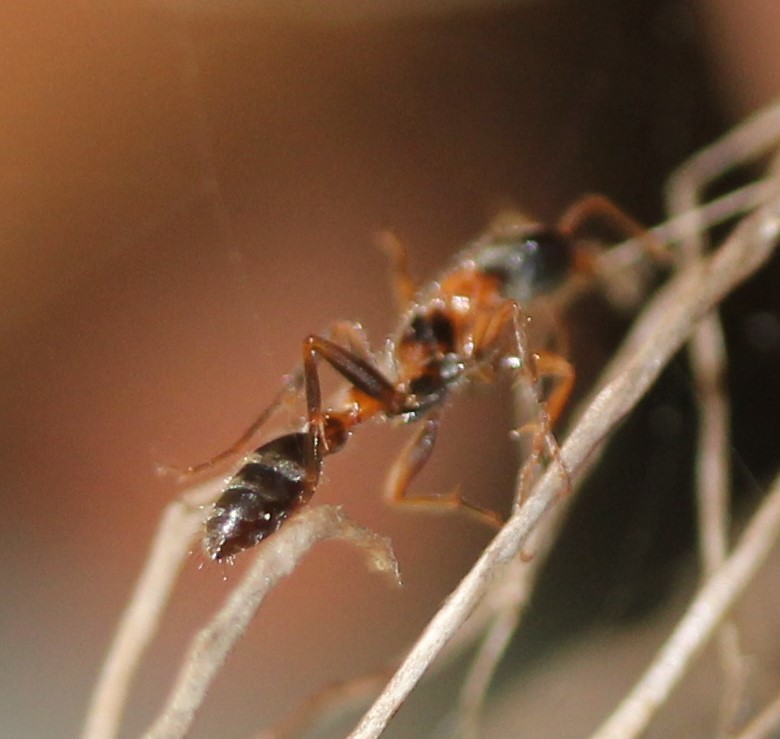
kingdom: Animalia
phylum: Arthropoda
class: Insecta
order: Hymenoptera
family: Formicidae
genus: Pseudomyrmex
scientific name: Pseudomyrmex gracilis
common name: Graceful twig ant
